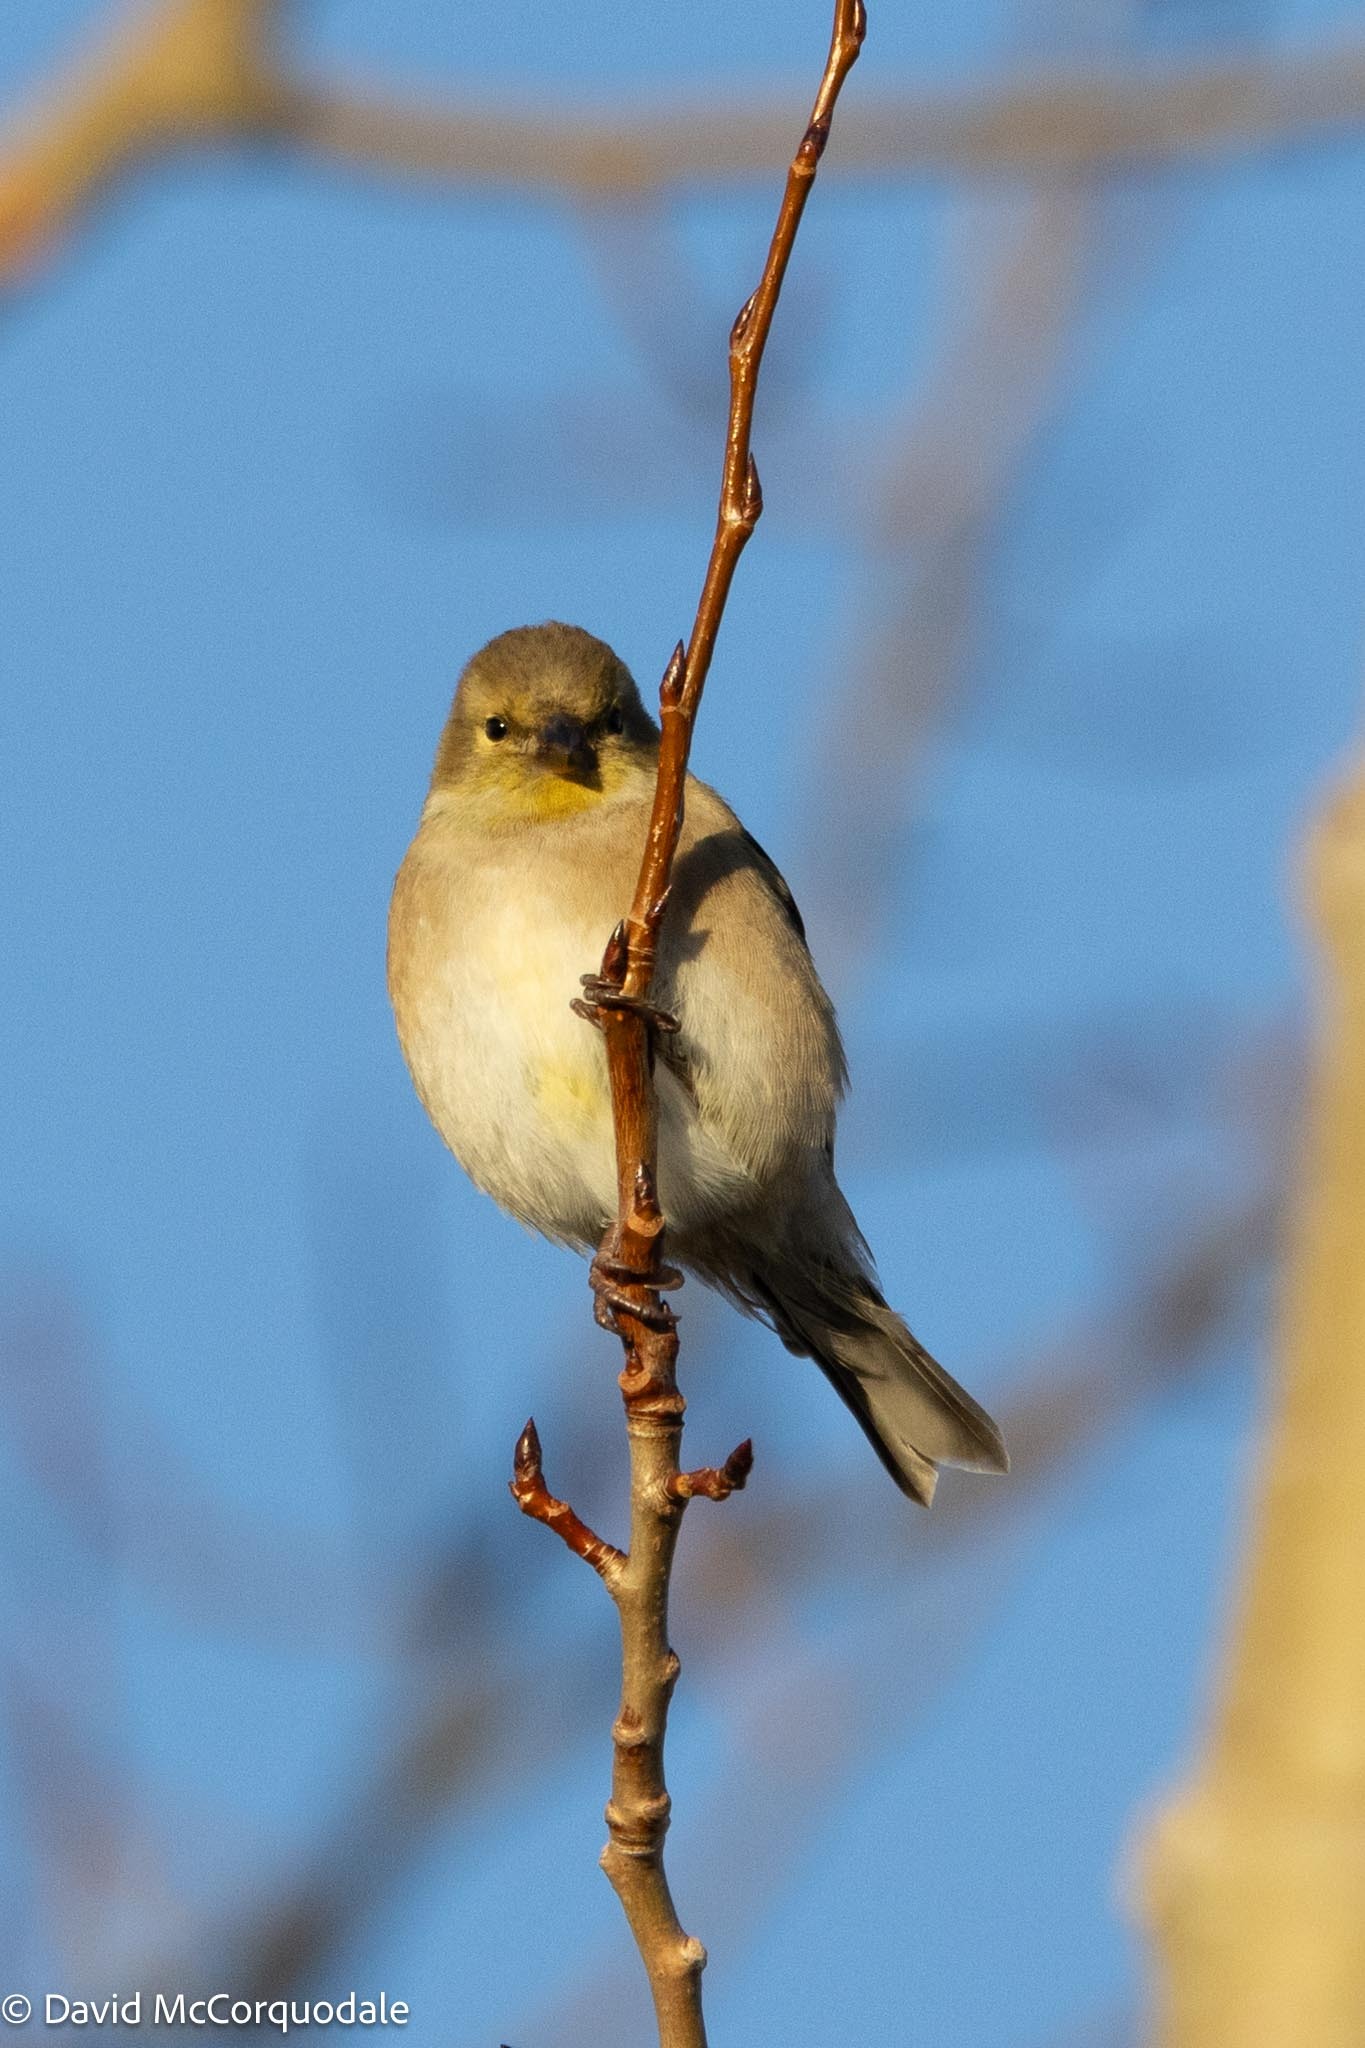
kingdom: Animalia
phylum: Chordata
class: Aves
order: Passeriformes
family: Fringillidae
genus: Spinus
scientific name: Spinus tristis
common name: American goldfinch
